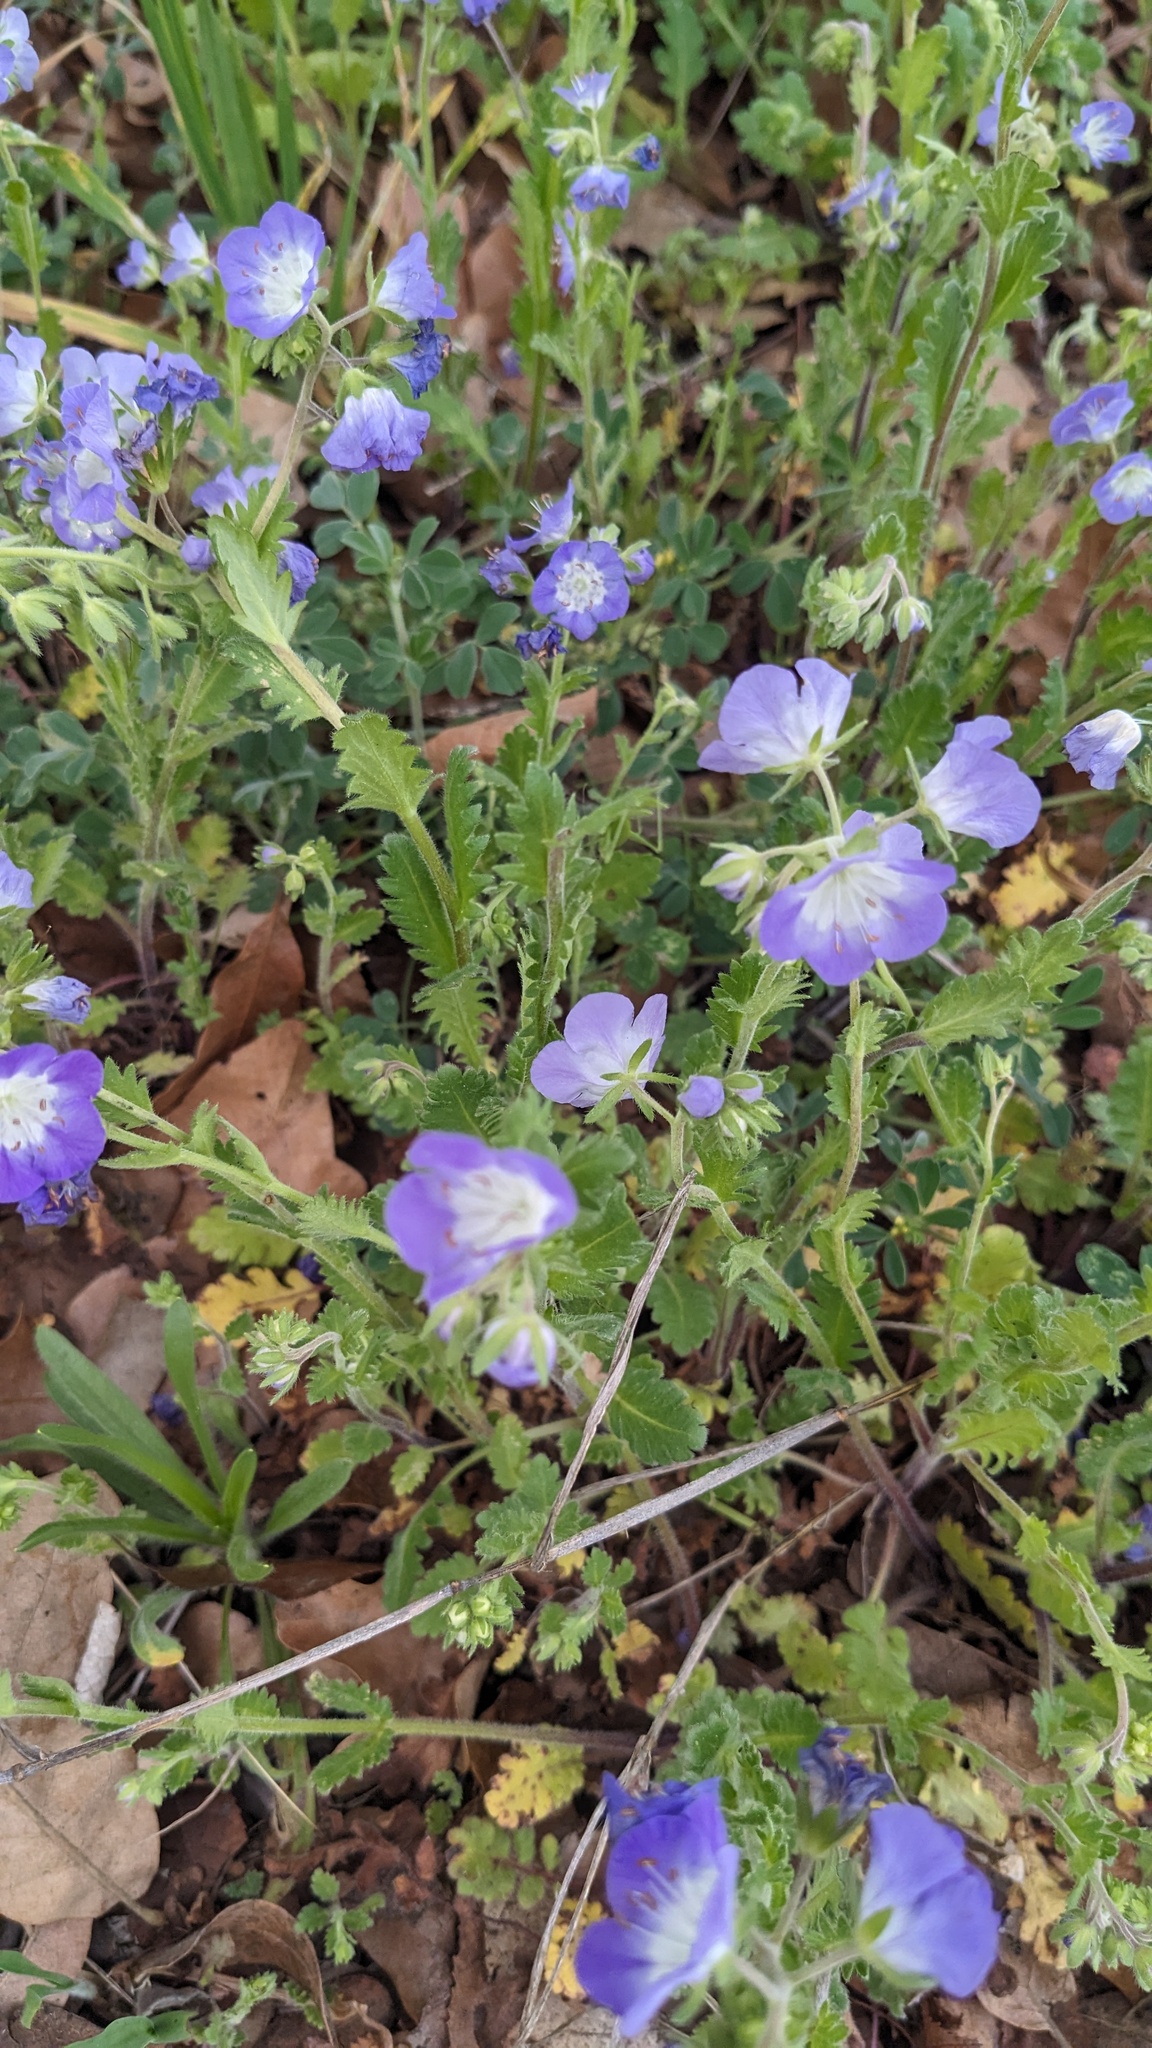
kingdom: Plantae
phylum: Tracheophyta
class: Magnoliopsida
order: Boraginales
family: Hydrophyllaceae
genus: Phacelia
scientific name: Phacelia patuliflora
